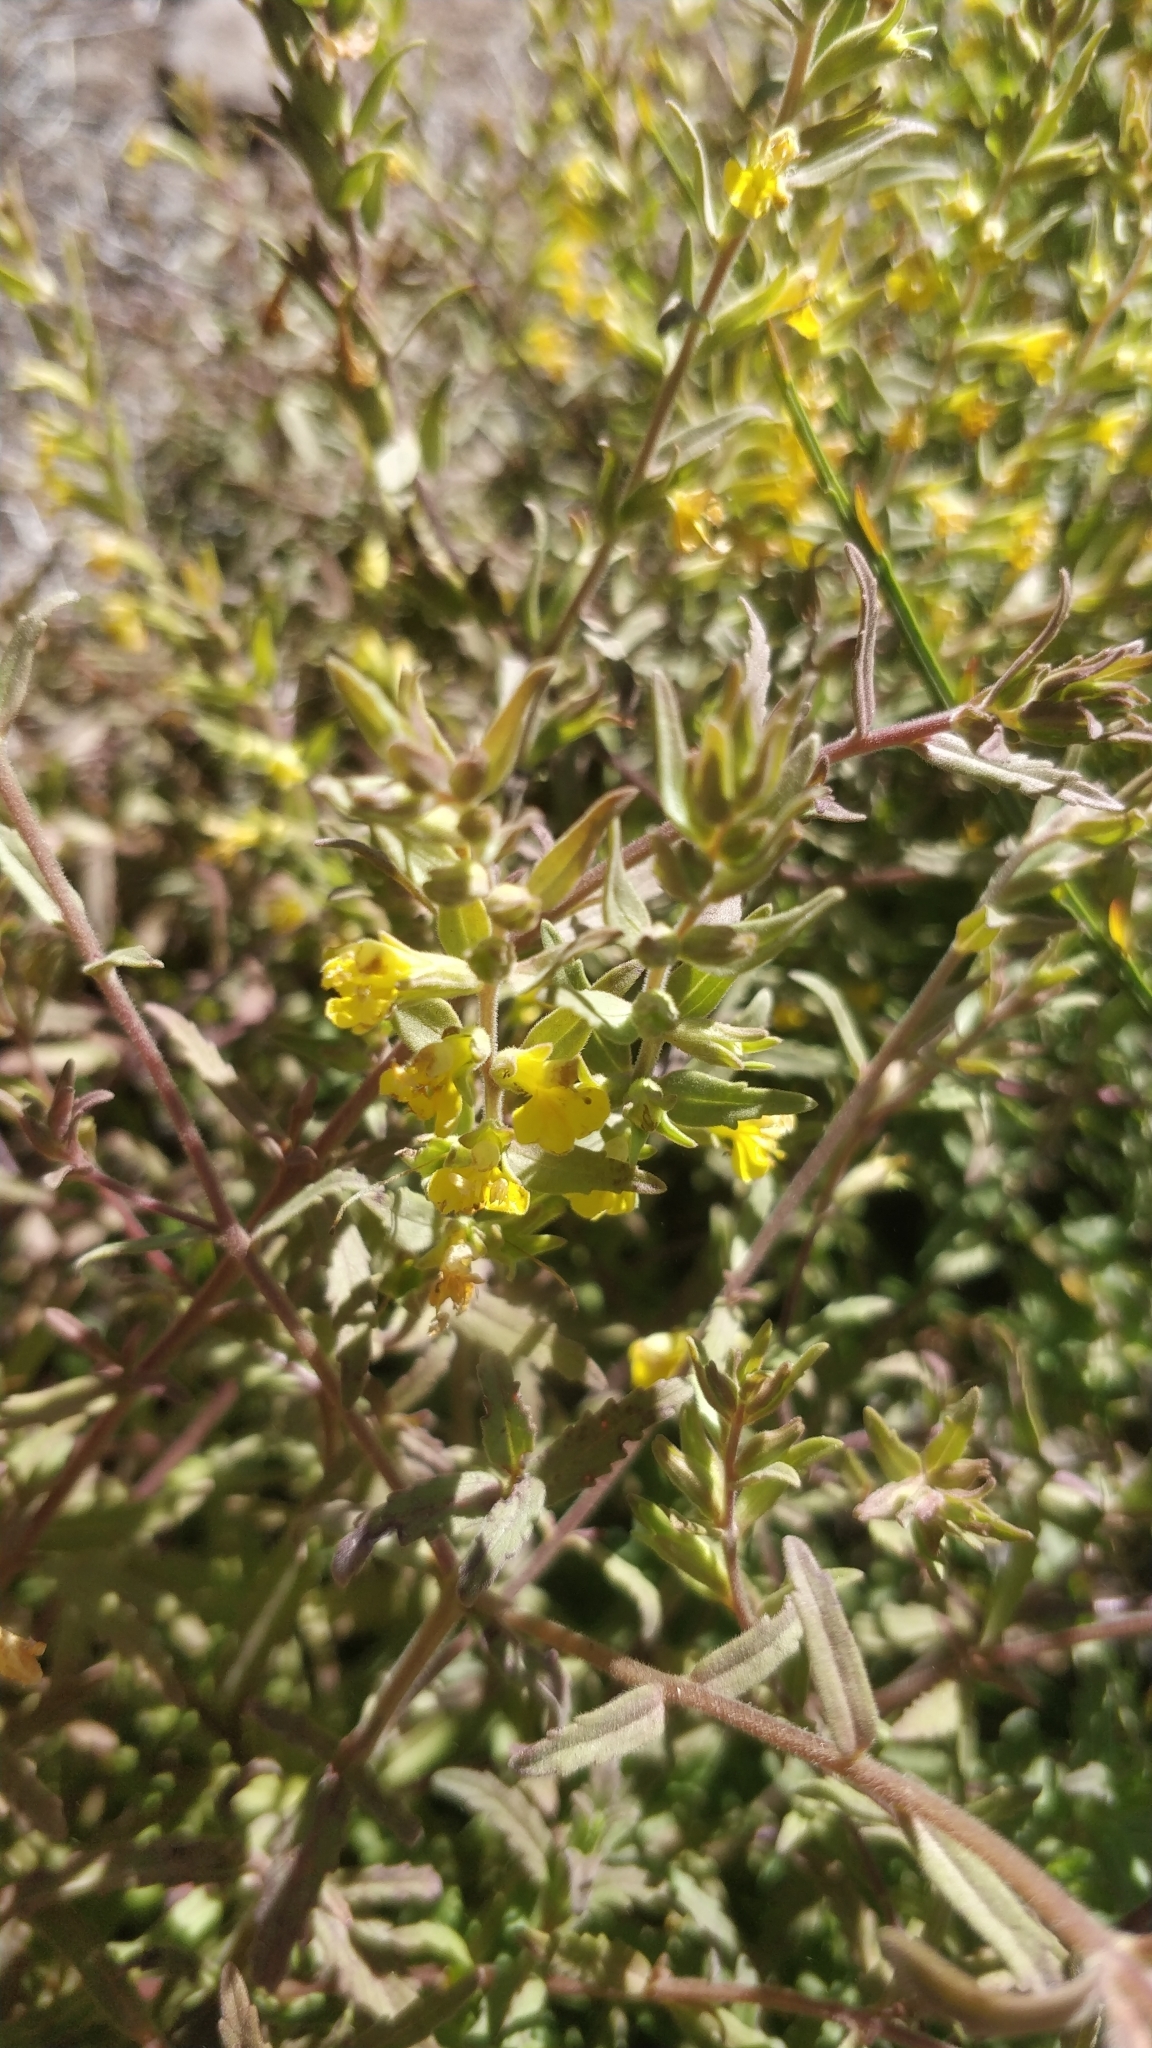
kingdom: Plantae
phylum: Tracheophyta
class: Magnoliopsida
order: Lamiales
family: Orobanchaceae
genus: Odontites
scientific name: Odontites hollianus
